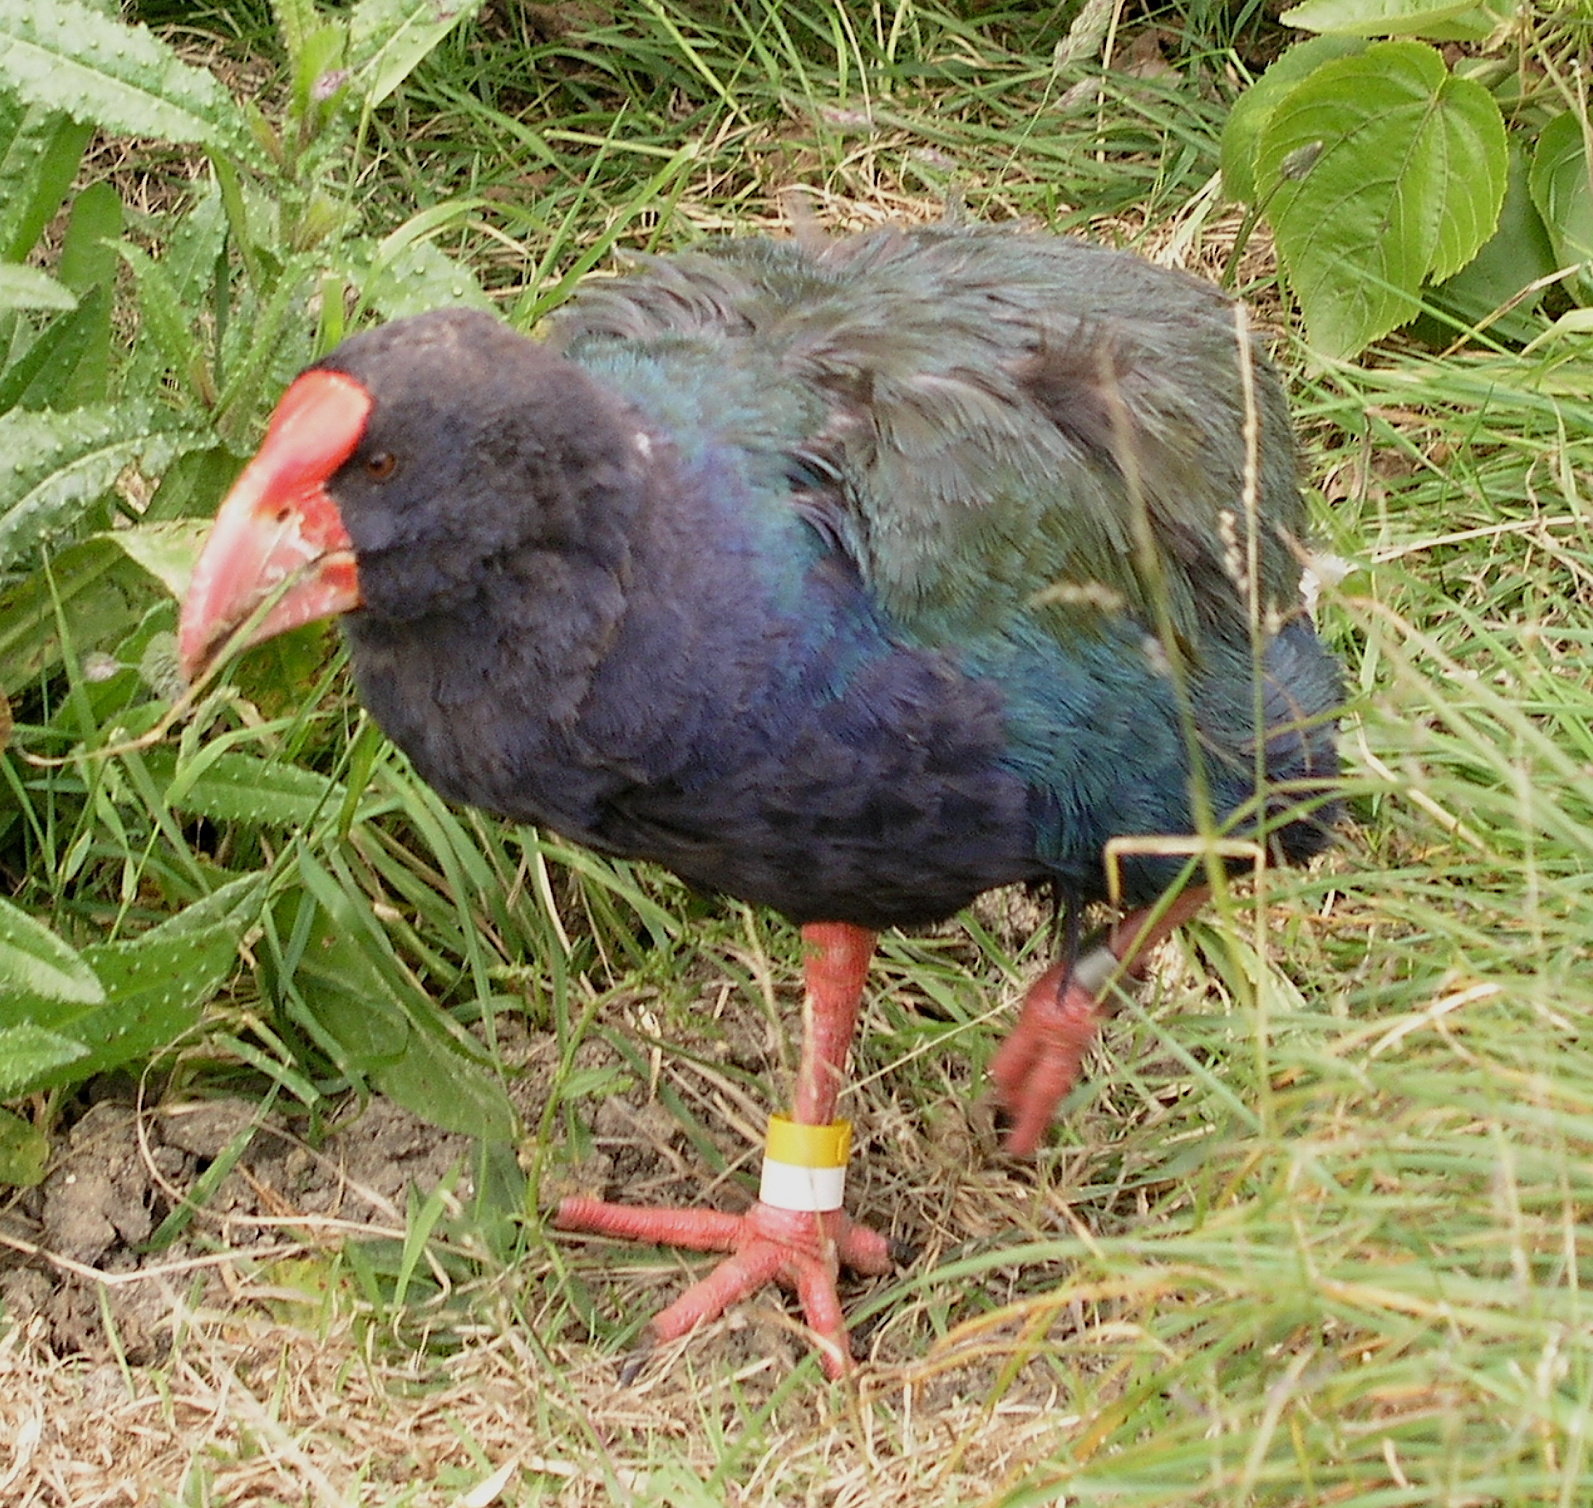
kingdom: Animalia
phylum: Chordata
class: Aves
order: Gruiformes
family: Rallidae
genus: Porphyrio
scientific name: Porphyrio hochstetteri
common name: South island takahe
